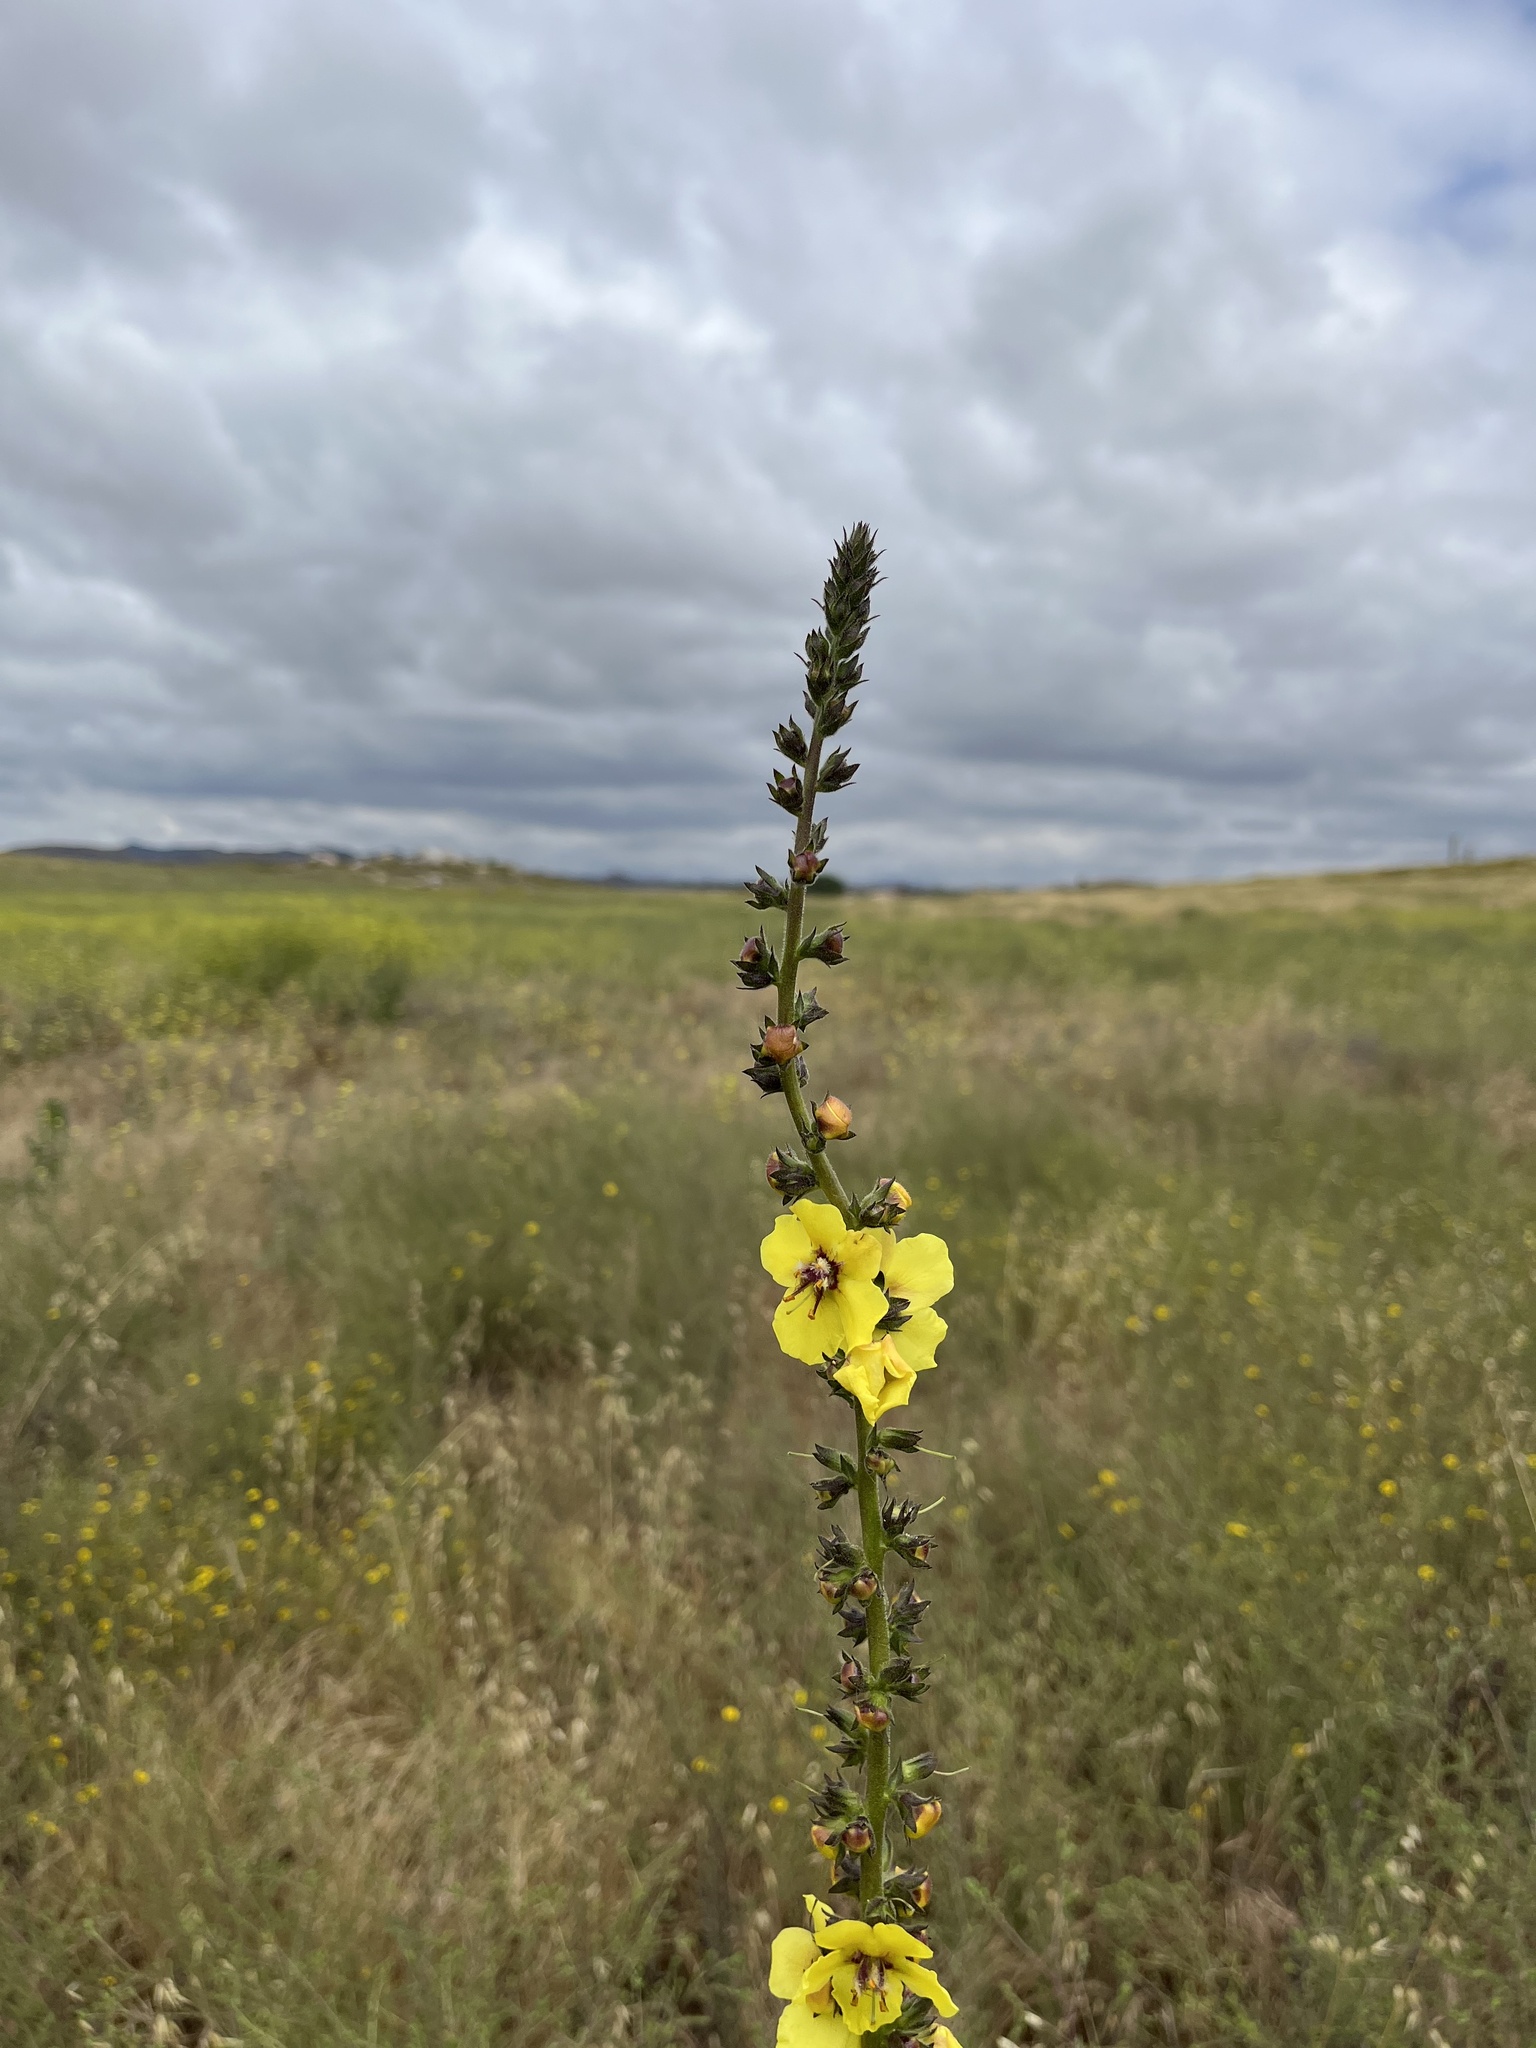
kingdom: Plantae
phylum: Tracheophyta
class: Magnoliopsida
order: Lamiales
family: Scrophulariaceae
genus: Verbascum
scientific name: Verbascum virgatum
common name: Twiggy mullein
